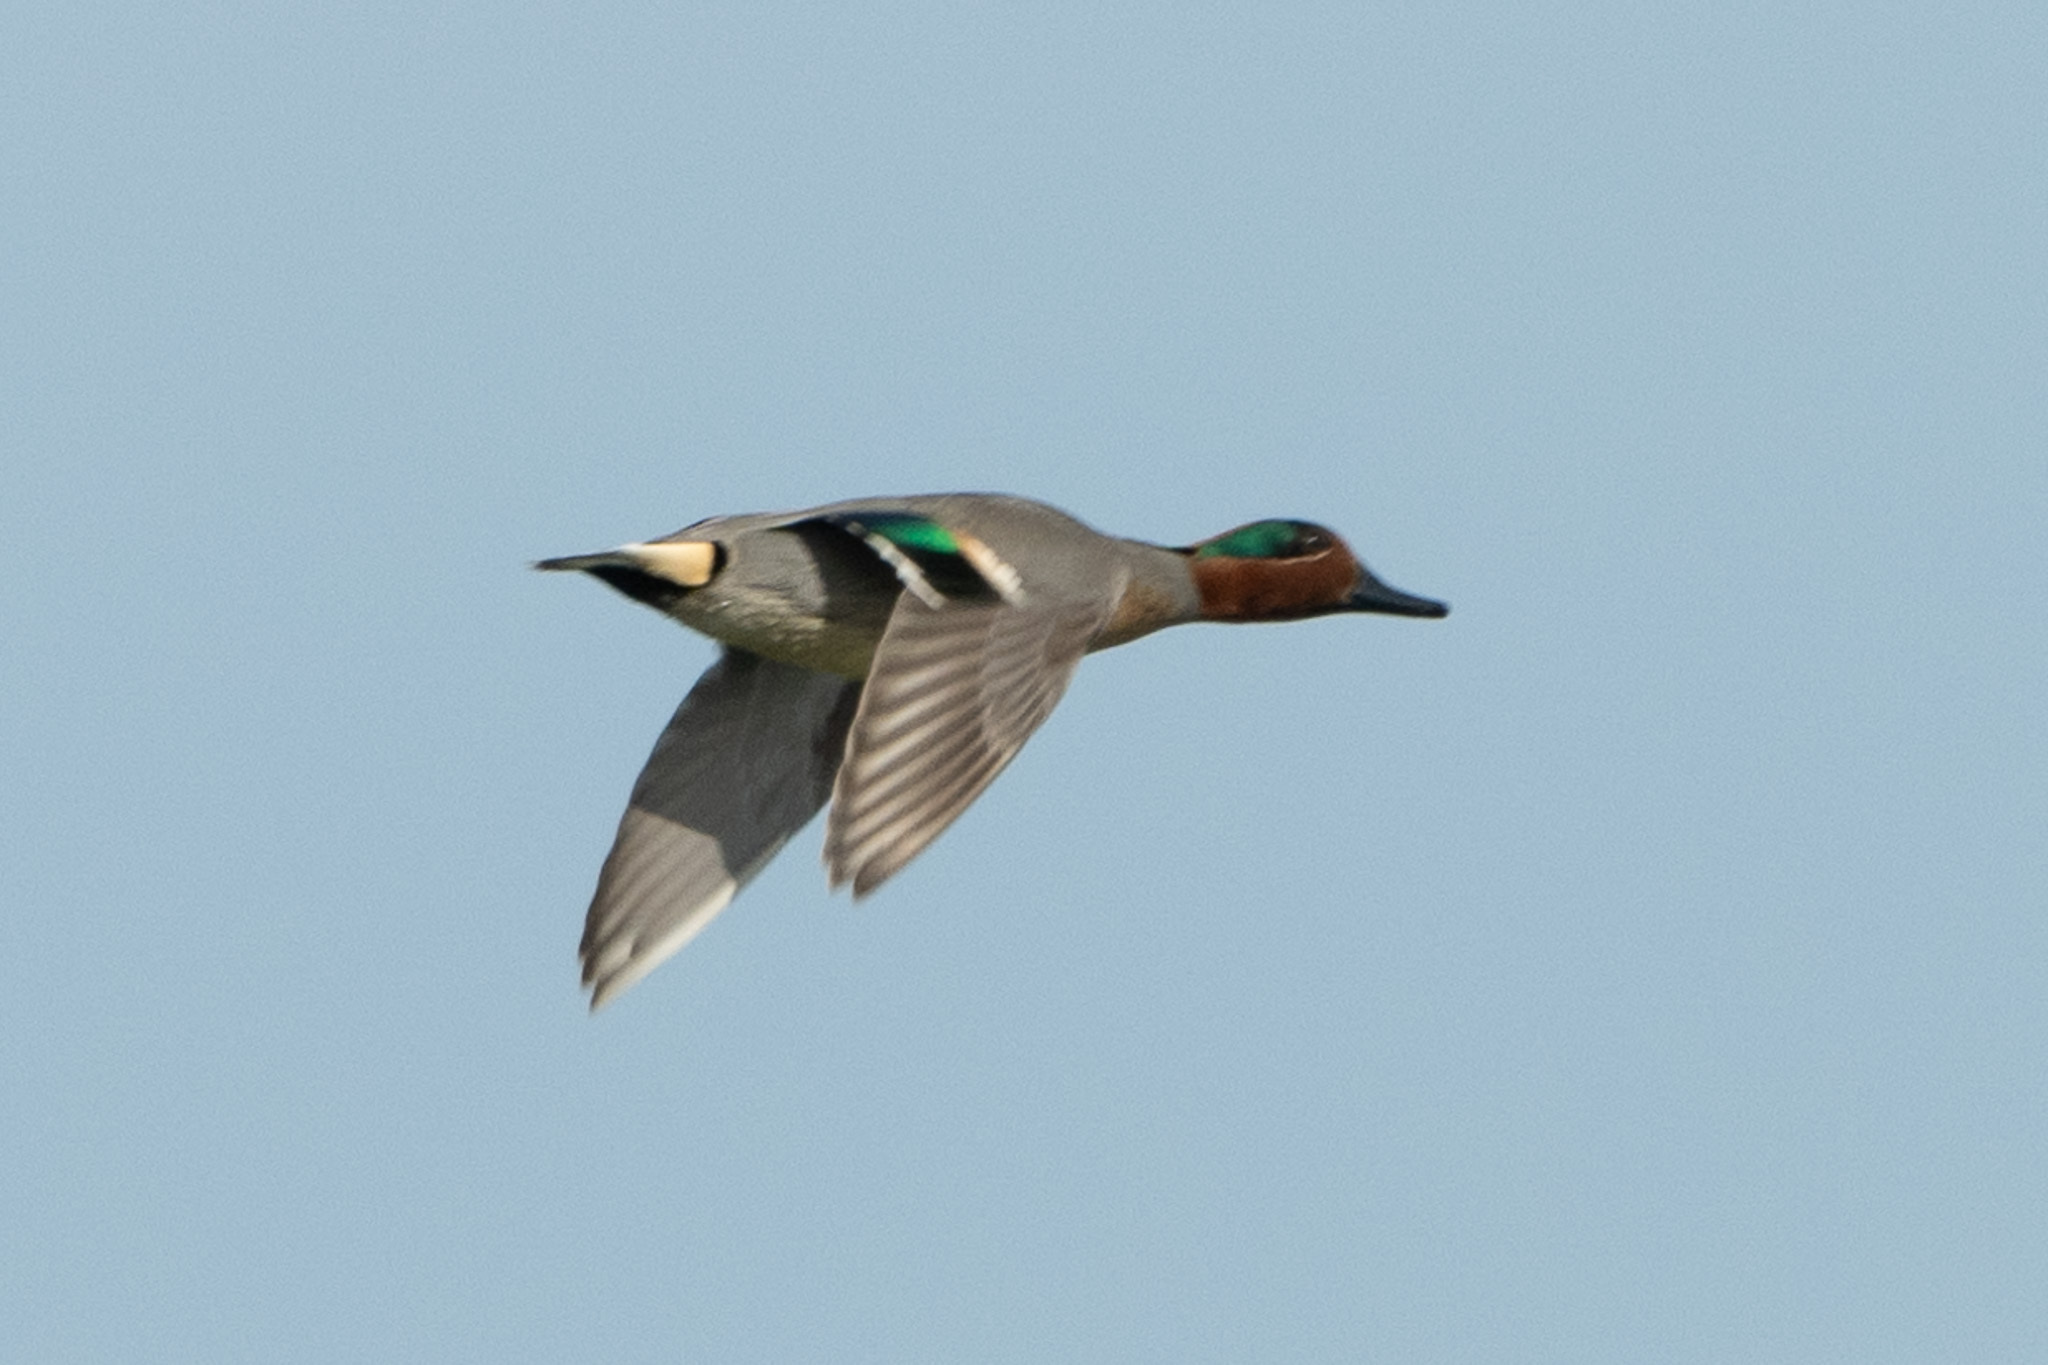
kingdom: Animalia
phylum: Chordata
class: Aves
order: Anseriformes
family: Anatidae
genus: Anas
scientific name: Anas crecca
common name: Eurasian teal
